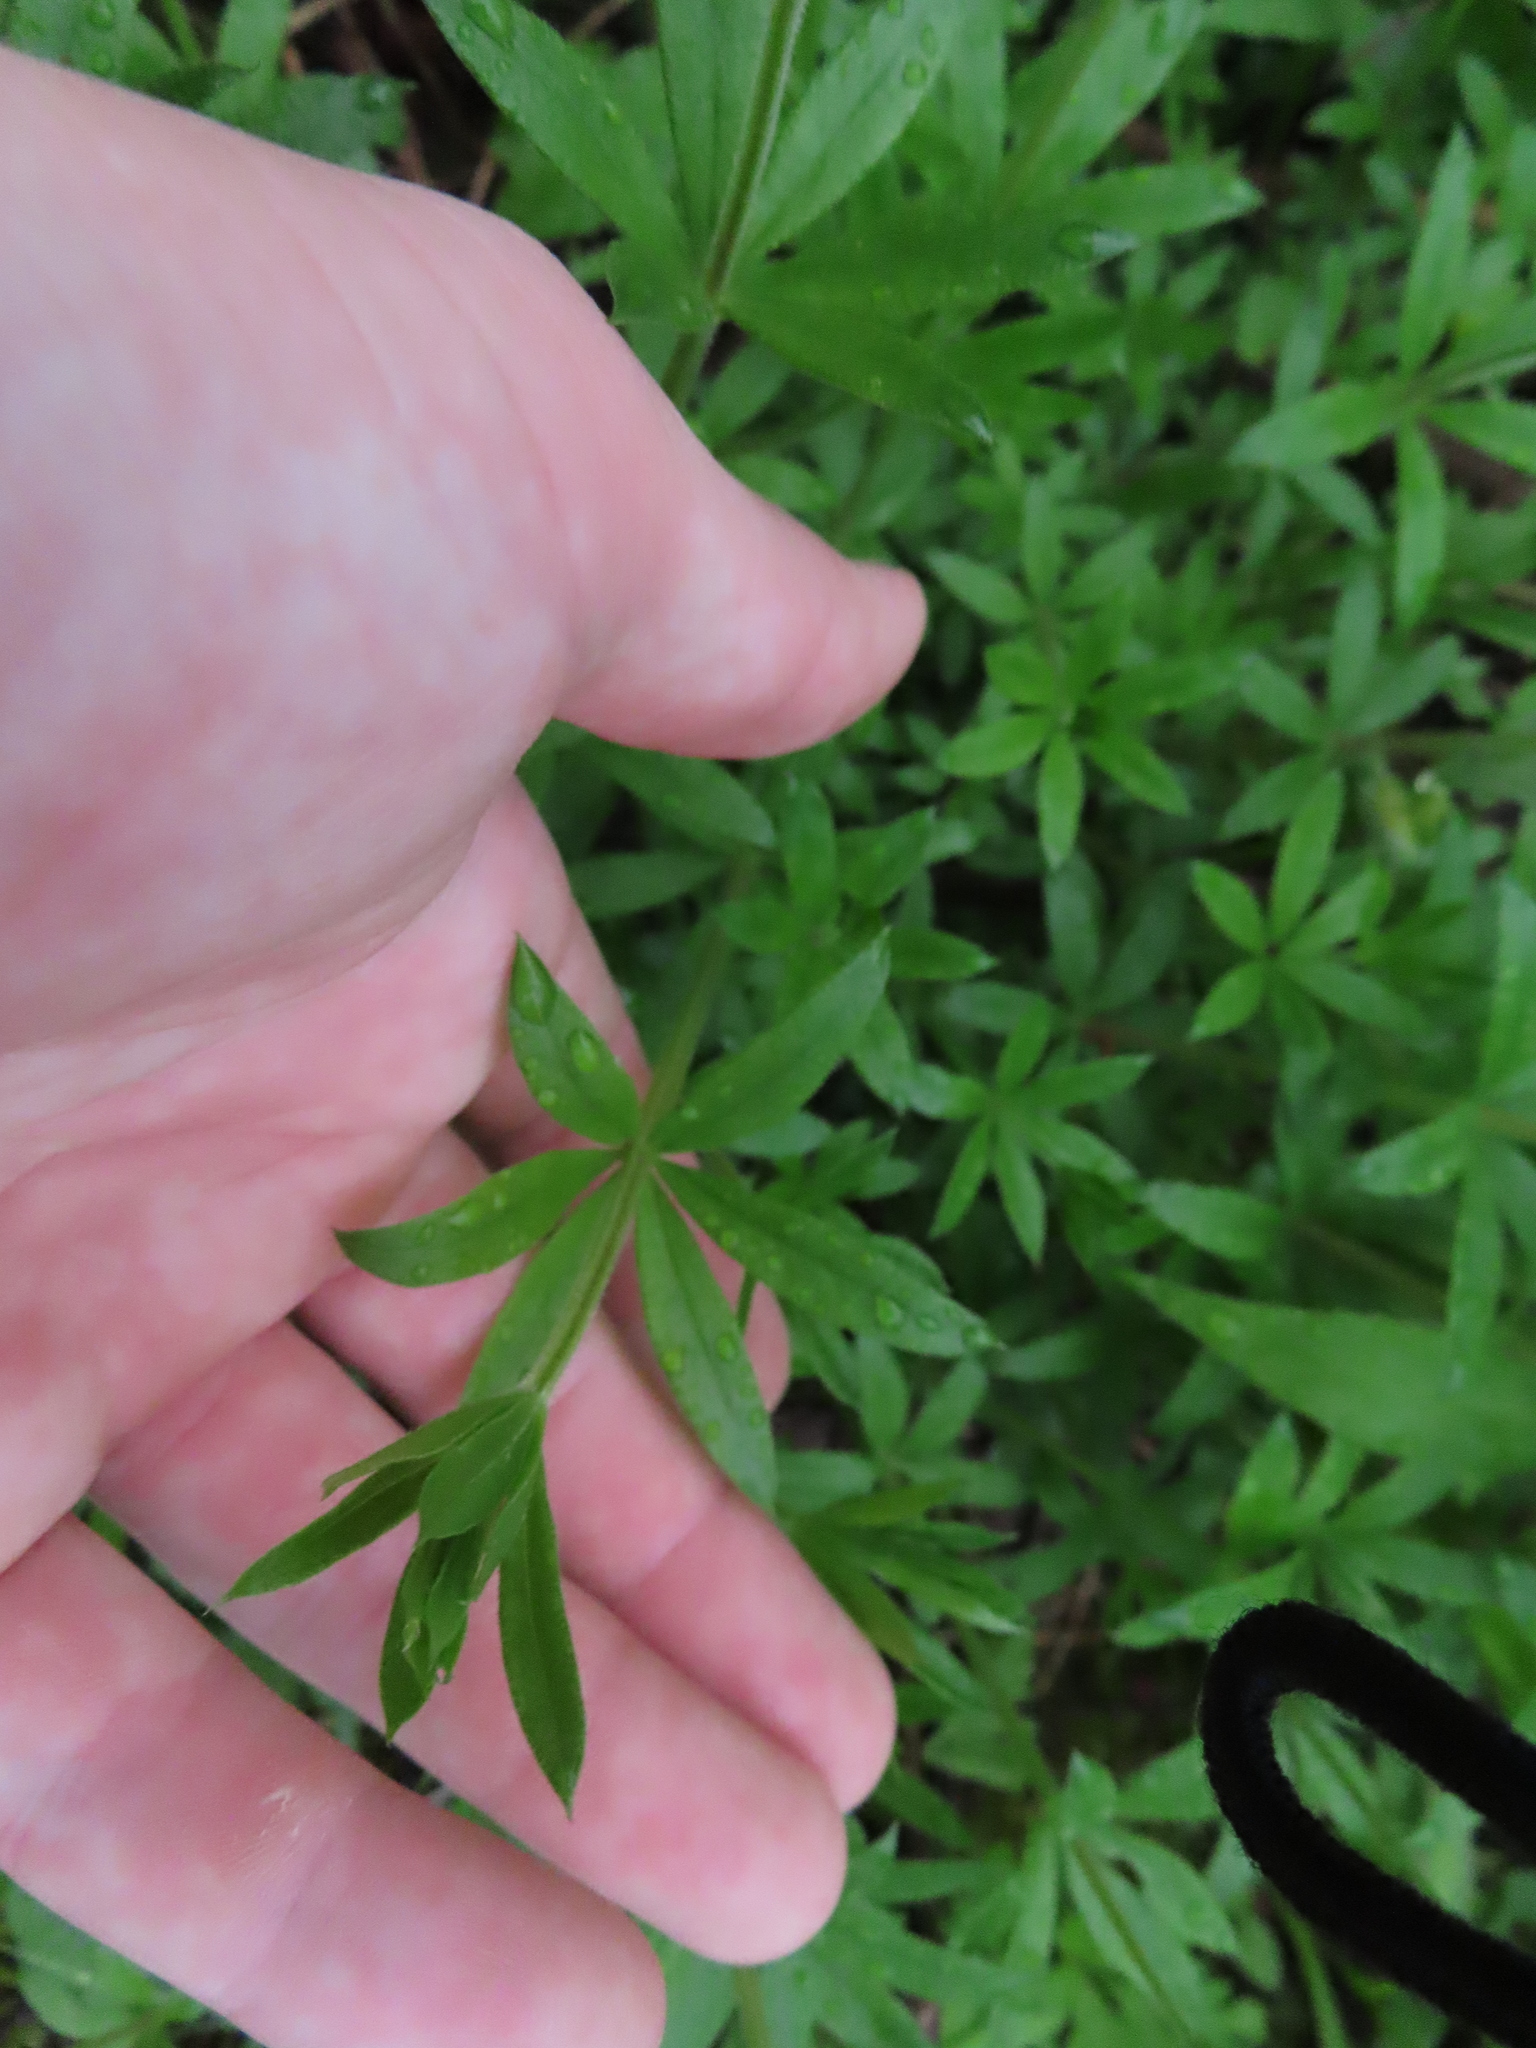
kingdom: Plantae
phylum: Tracheophyta
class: Magnoliopsida
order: Gentianales
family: Rubiaceae
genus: Galium
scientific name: Galium triflorum
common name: Fragrant bedstraw
